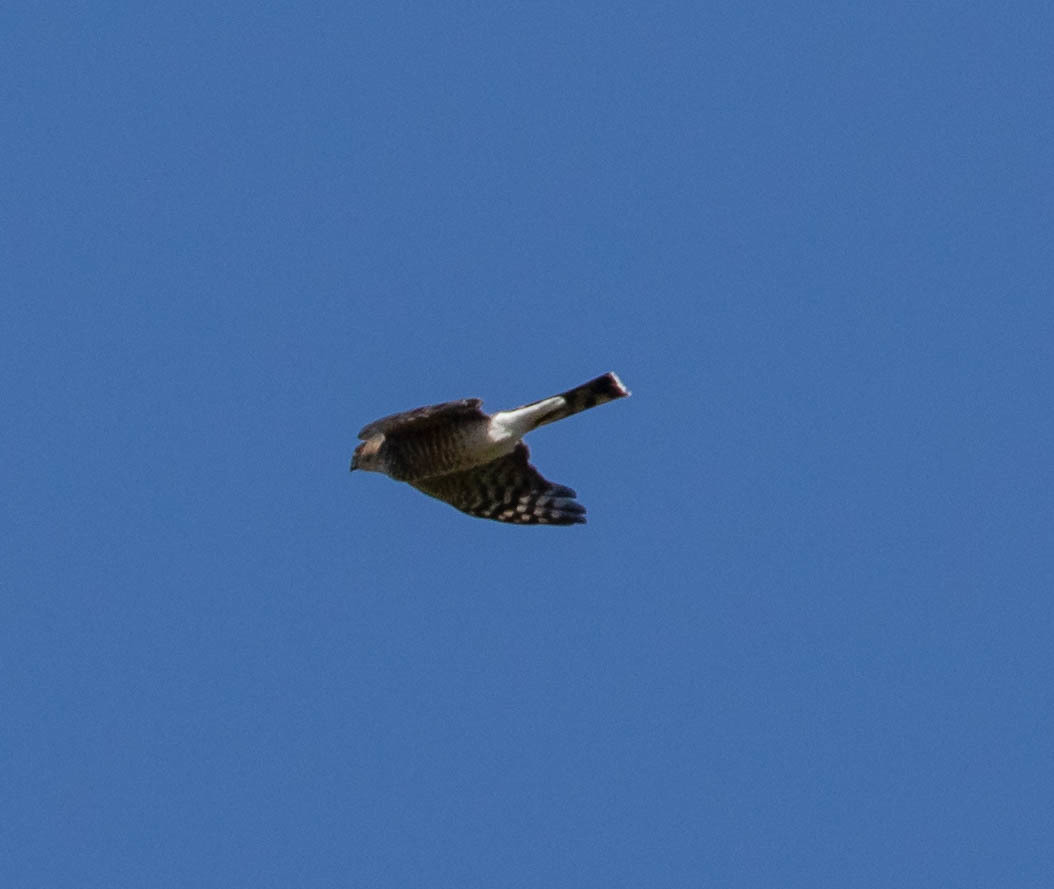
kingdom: Animalia
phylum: Chordata
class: Aves
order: Accipitriformes
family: Accipitridae
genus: Accipiter
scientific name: Accipiter striatus
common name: Sharp-shinned hawk
